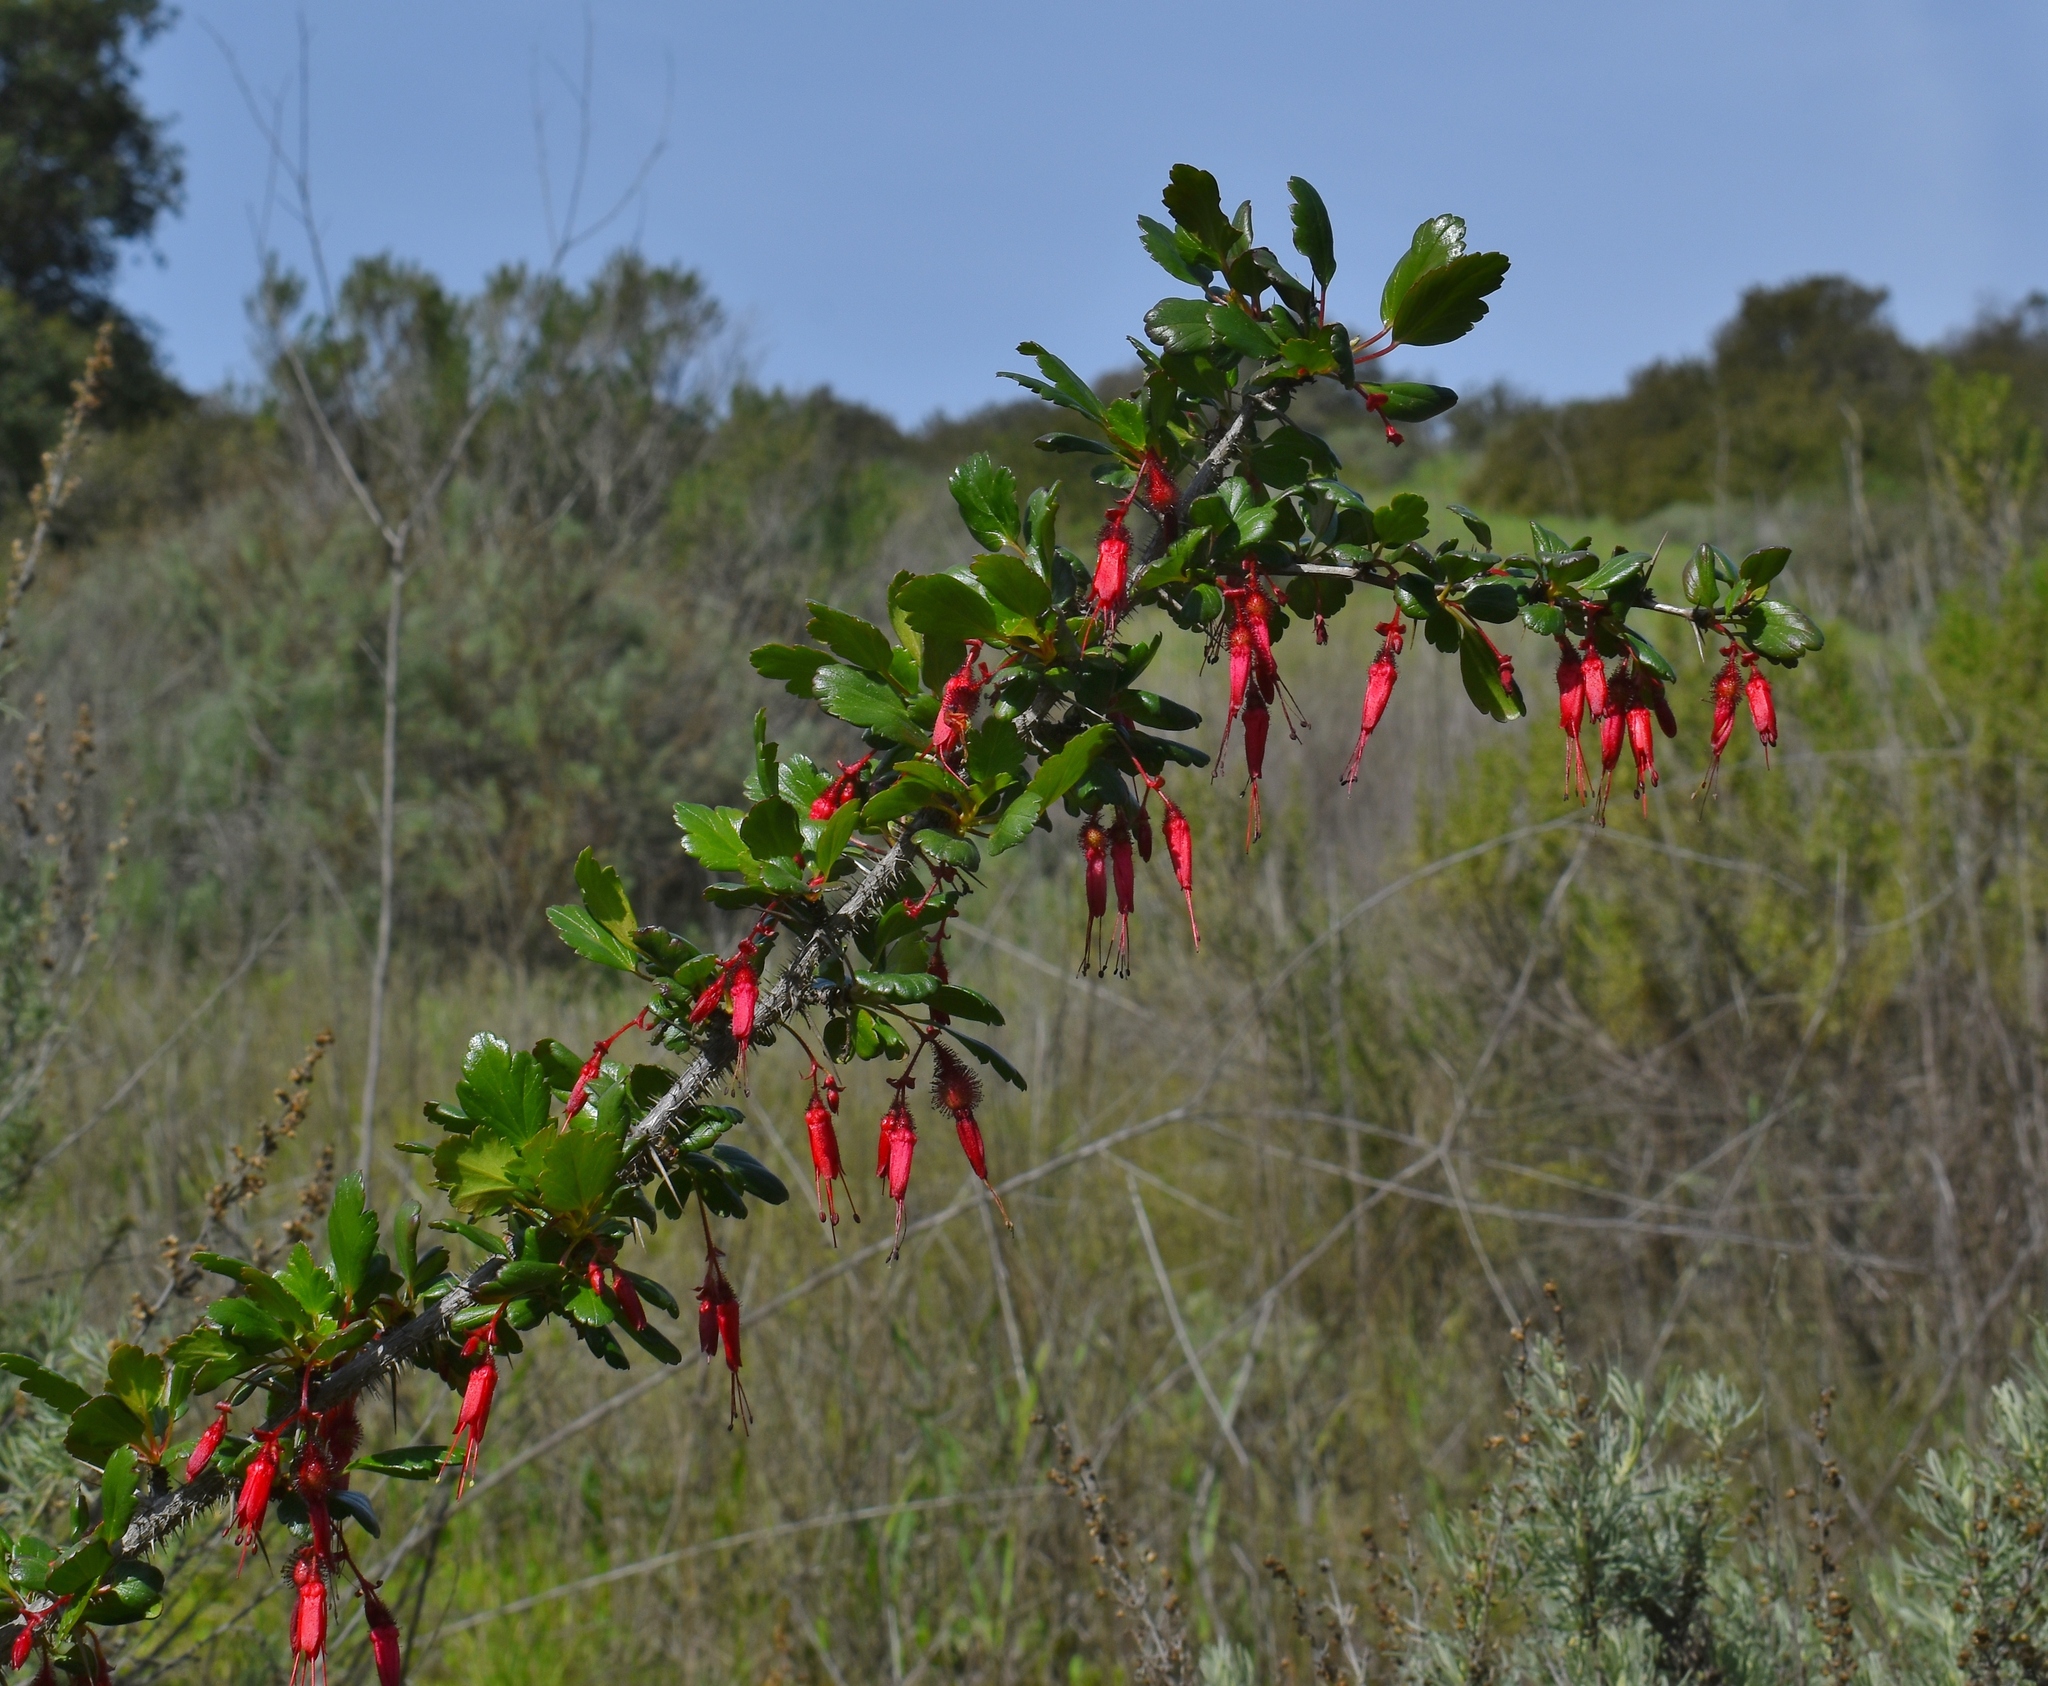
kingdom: Plantae
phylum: Tracheophyta
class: Magnoliopsida
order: Saxifragales
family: Grossulariaceae
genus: Ribes
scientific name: Ribes speciosum
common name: Fuchsia-flower gooseberry
